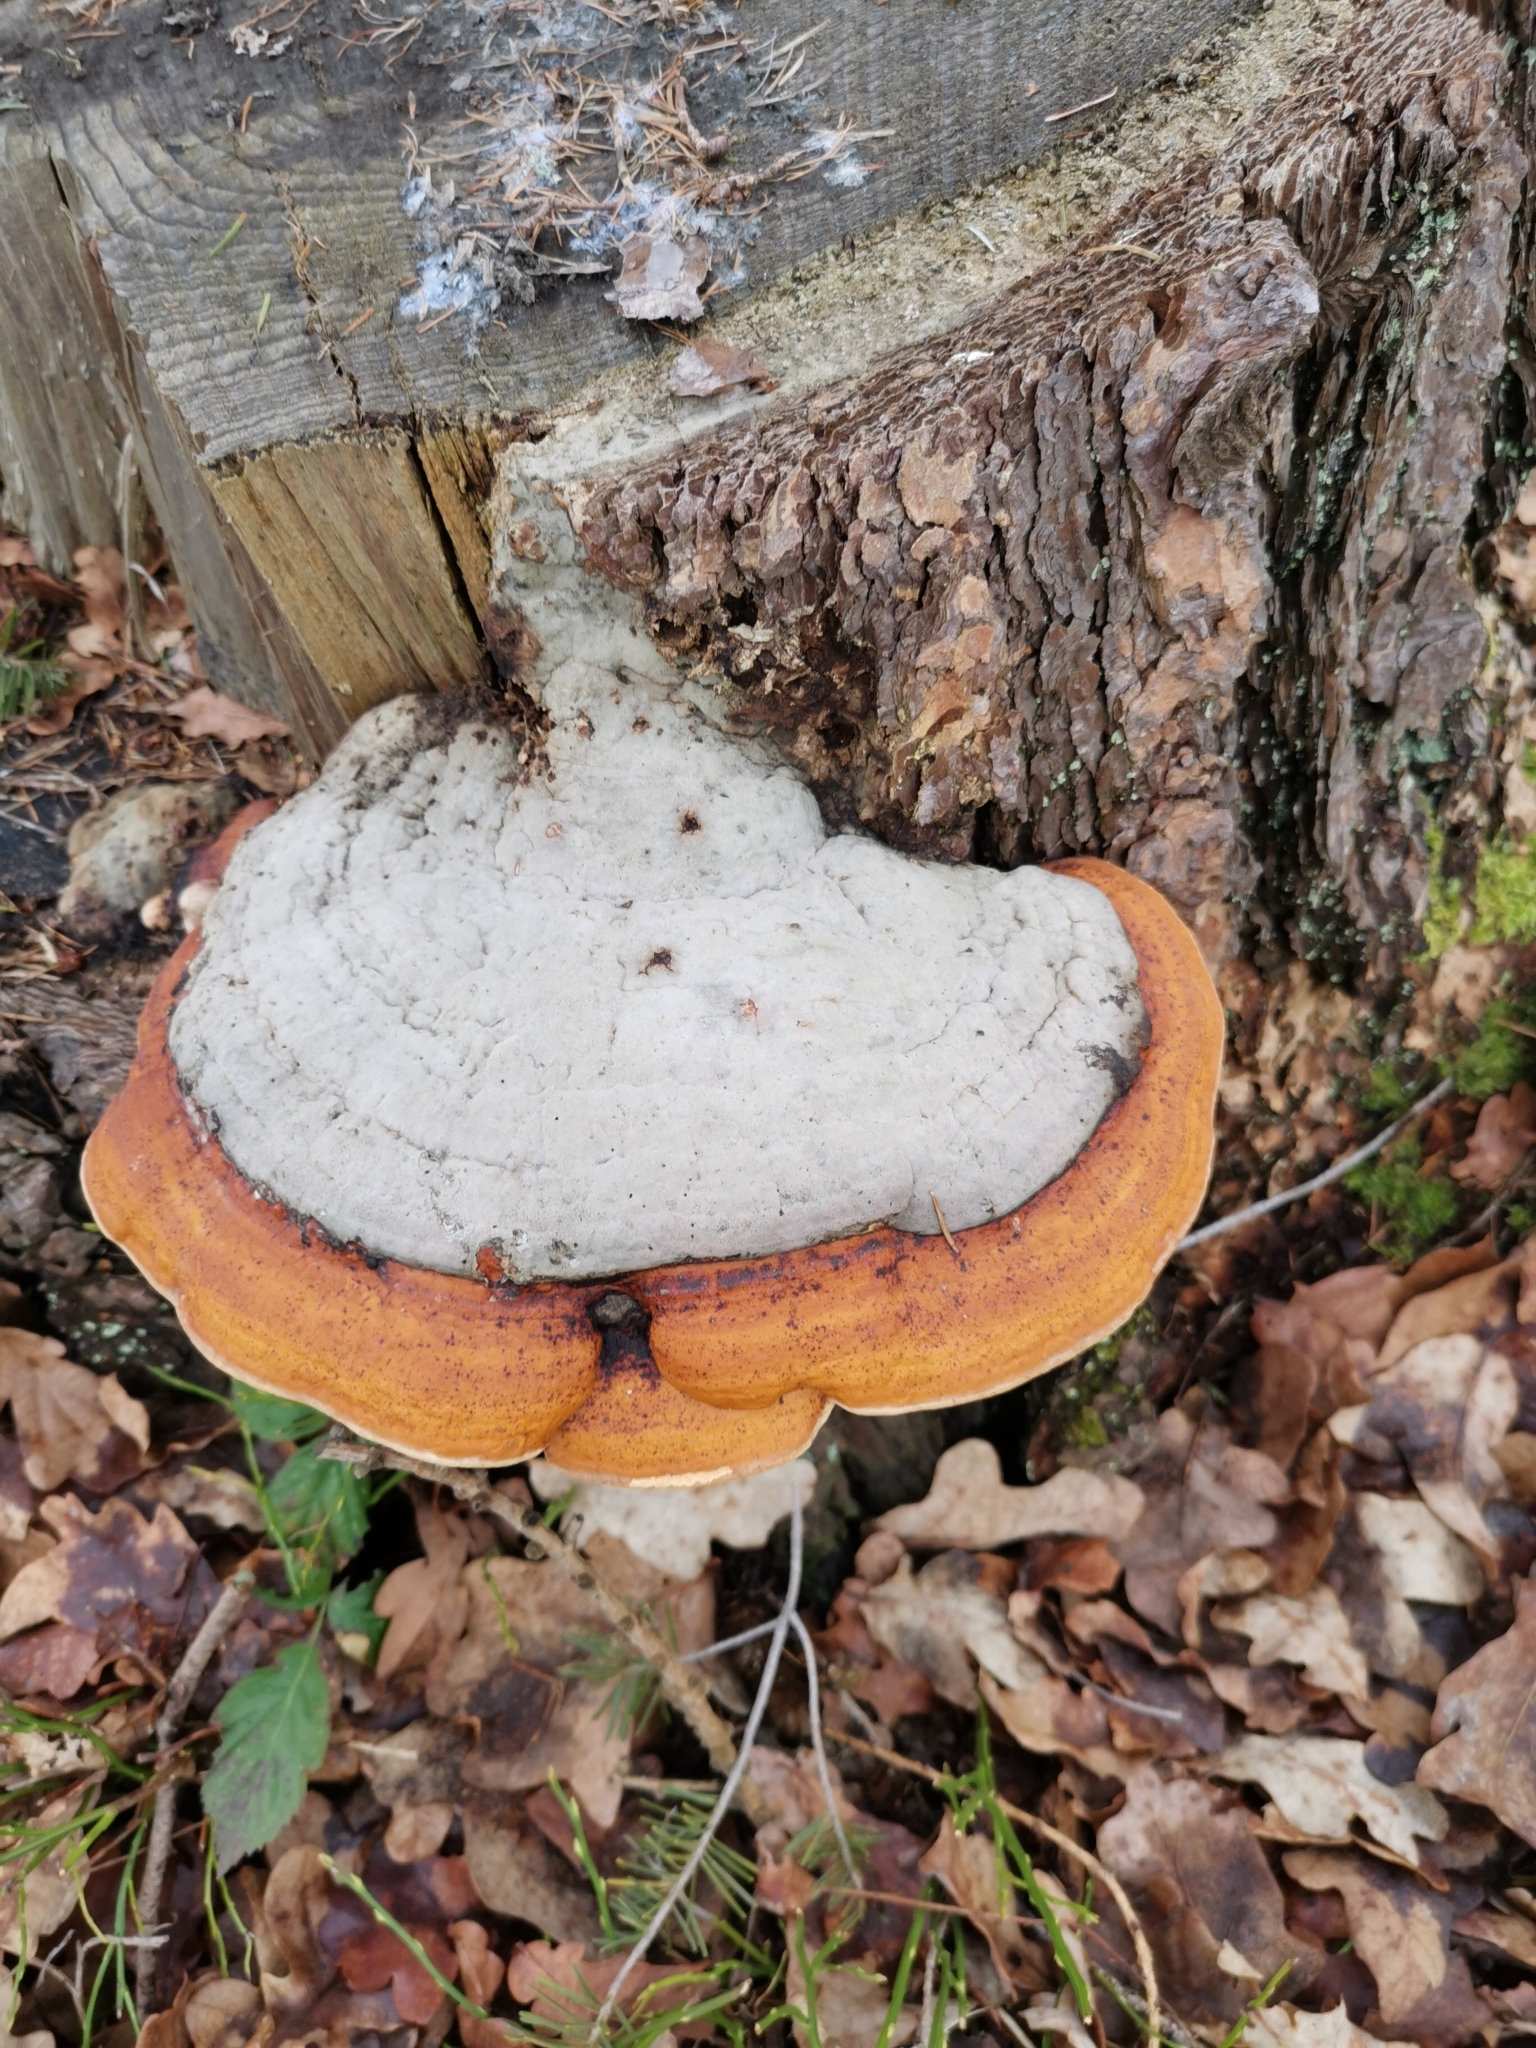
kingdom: Fungi
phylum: Basidiomycota
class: Agaricomycetes
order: Polyporales
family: Fomitopsidaceae
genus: Fomitopsis
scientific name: Fomitopsis pinicola
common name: Red-belted bracket
